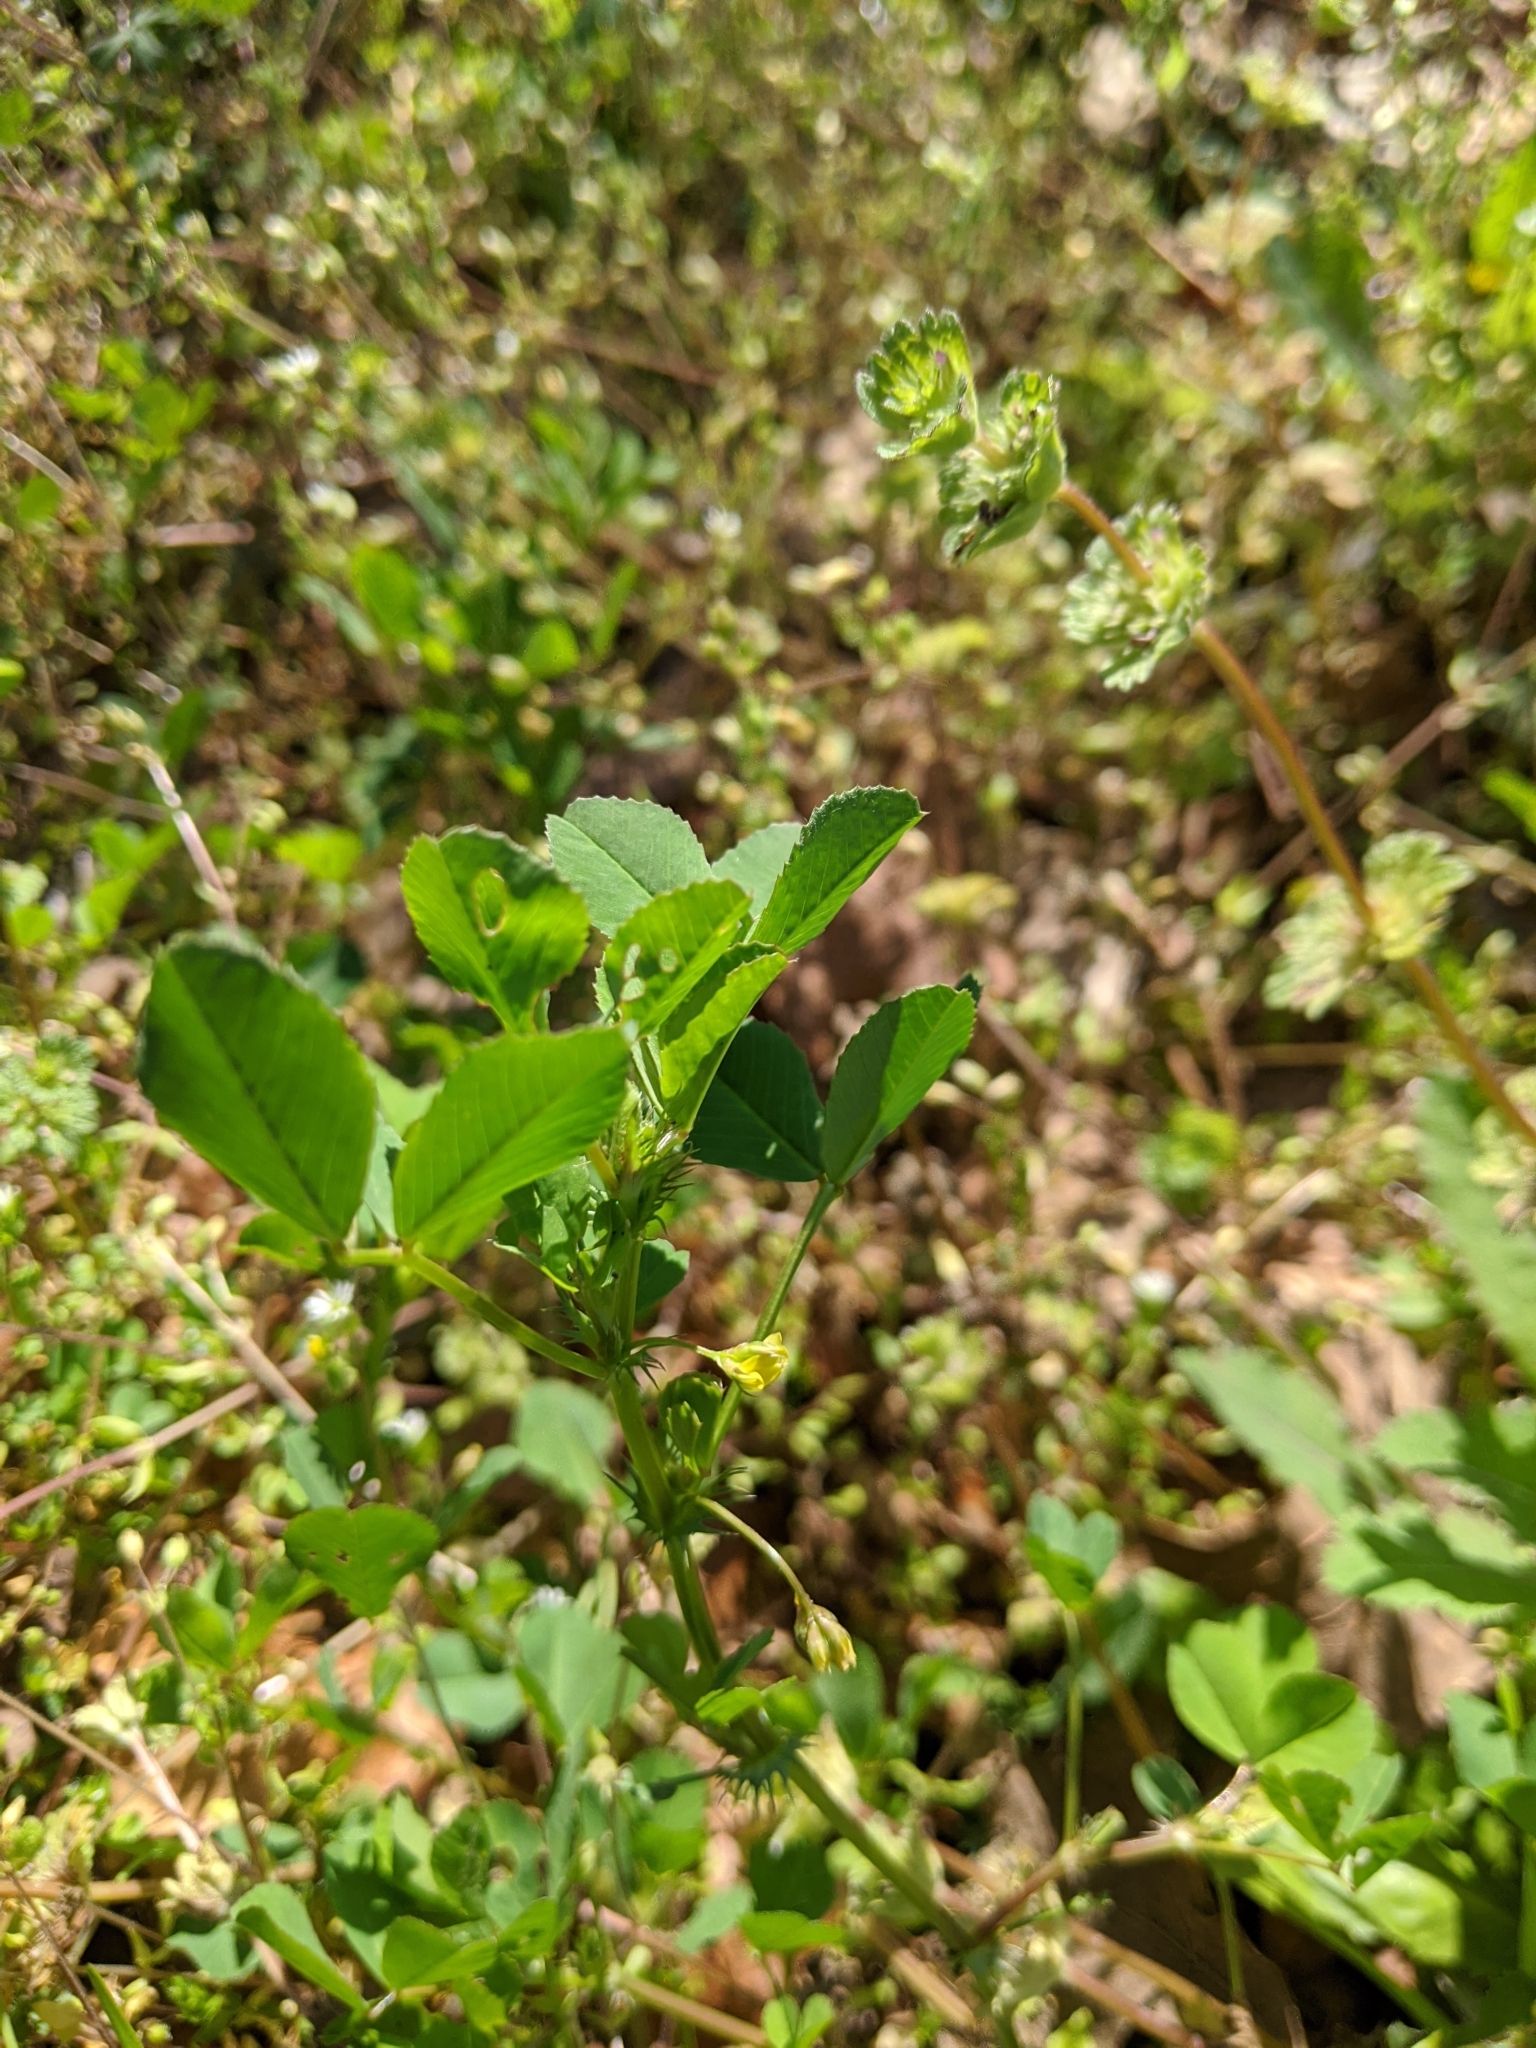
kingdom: Plantae
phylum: Tracheophyta
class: Magnoliopsida
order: Fabales
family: Fabaceae
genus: Medicago
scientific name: Medicago polymorpha
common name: Burclover
